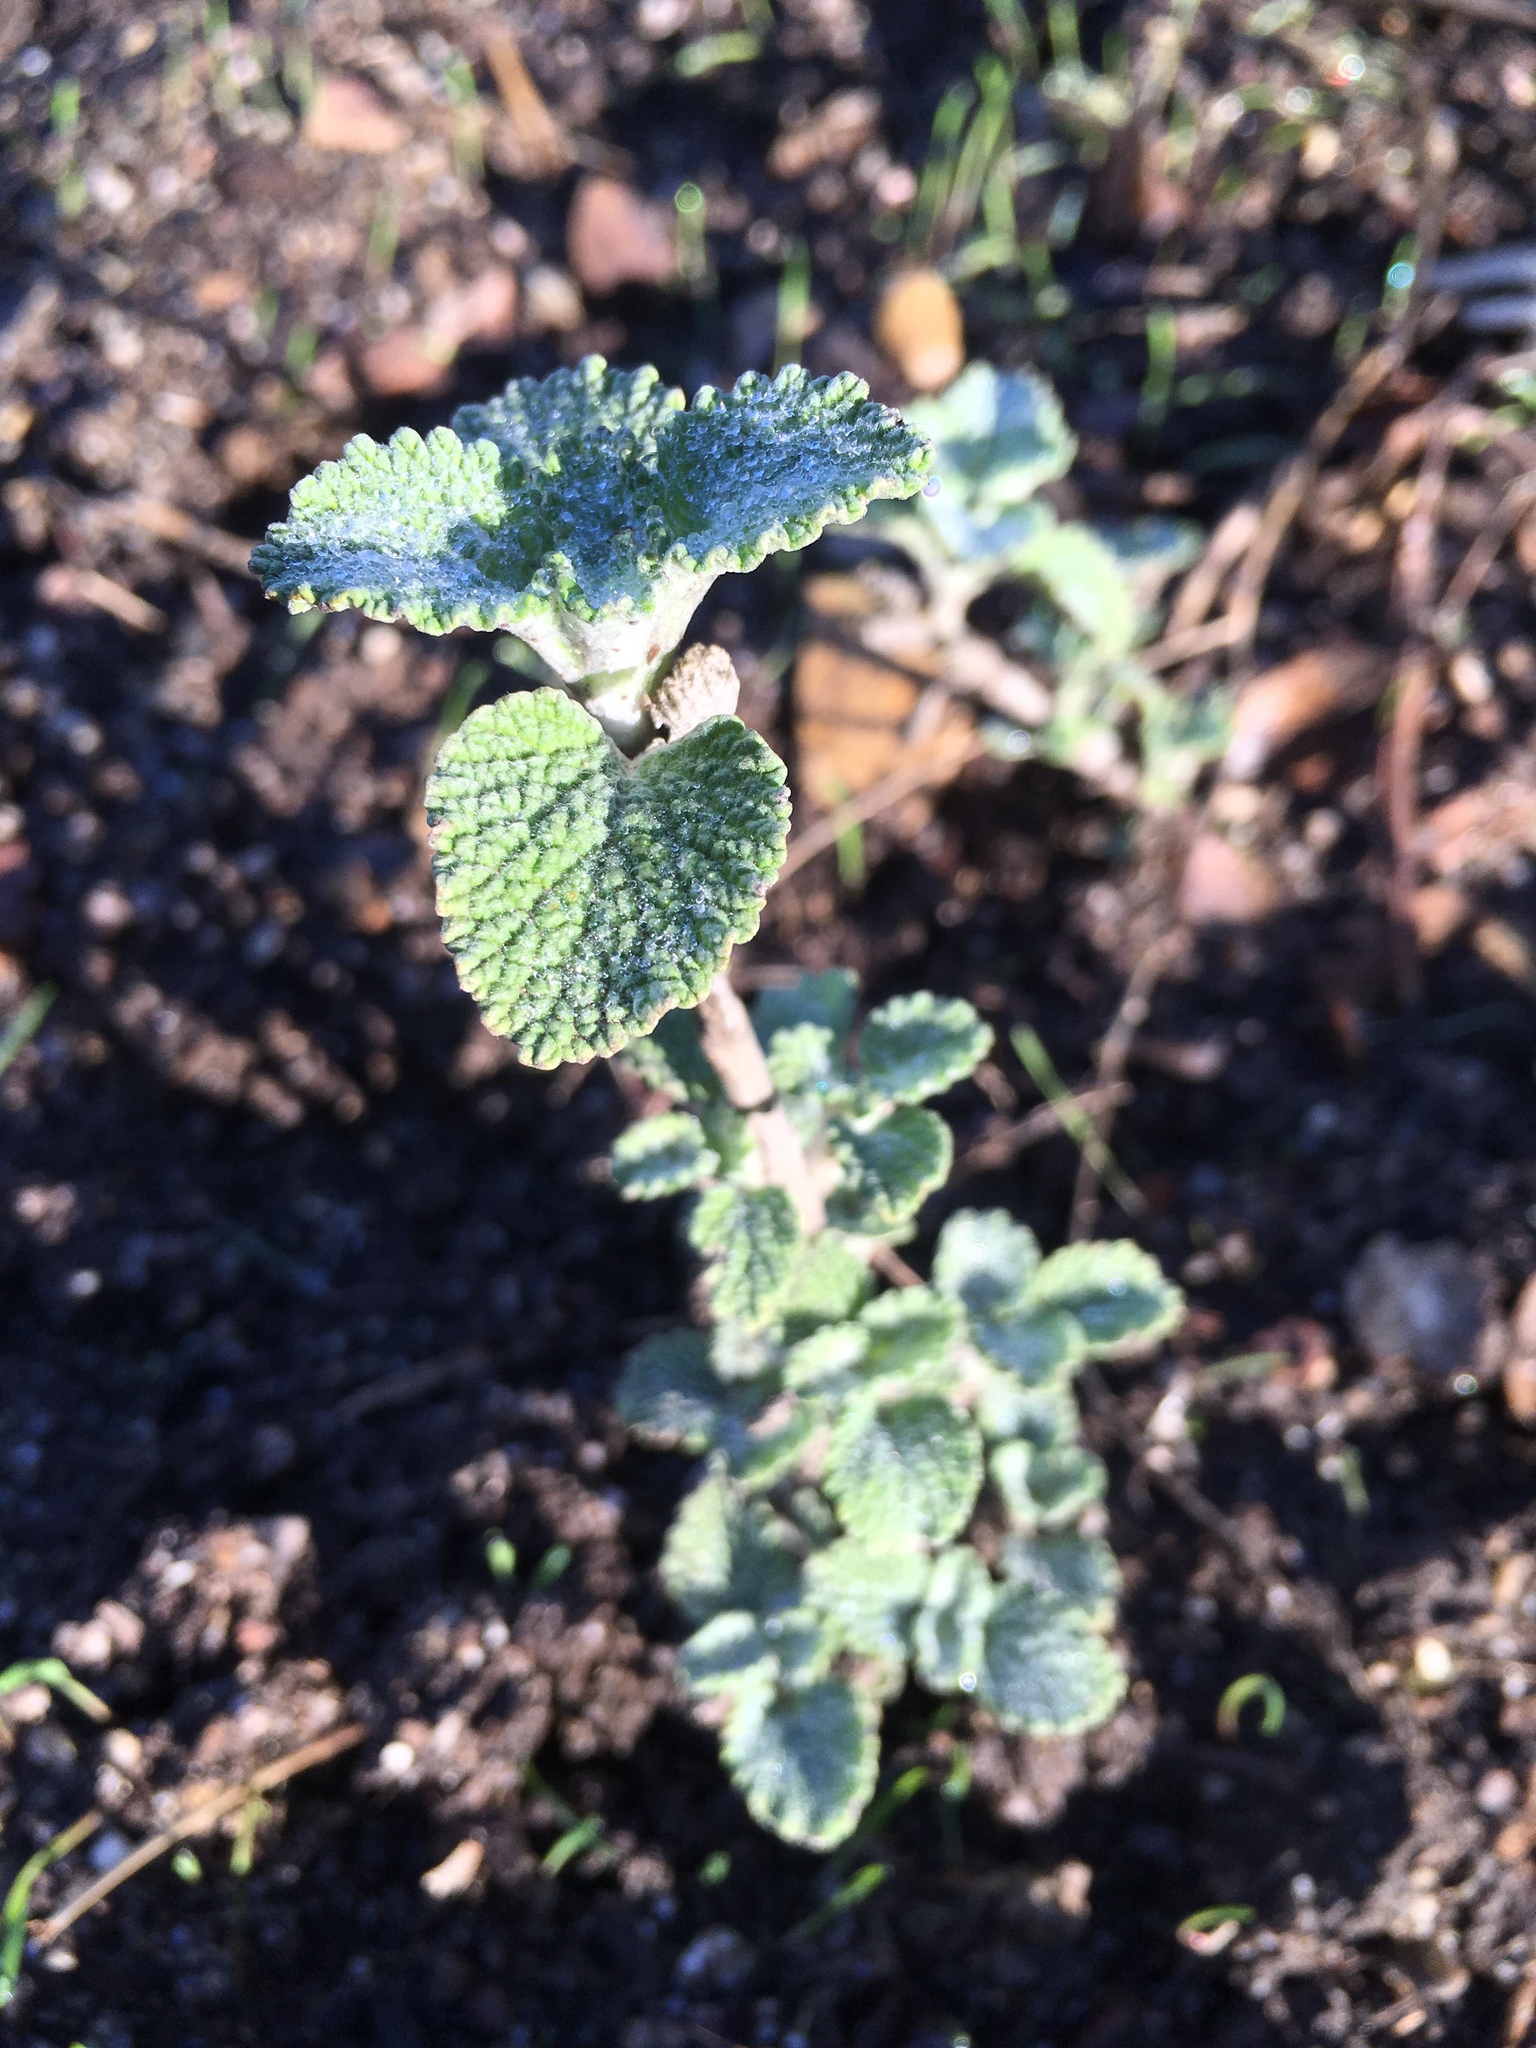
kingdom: Plantae
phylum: Tracheophyta
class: Magnoliopsida
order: Lamiales
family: Lamiaceae
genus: Marrubium
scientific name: Marrubium vulgare
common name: Horehound
